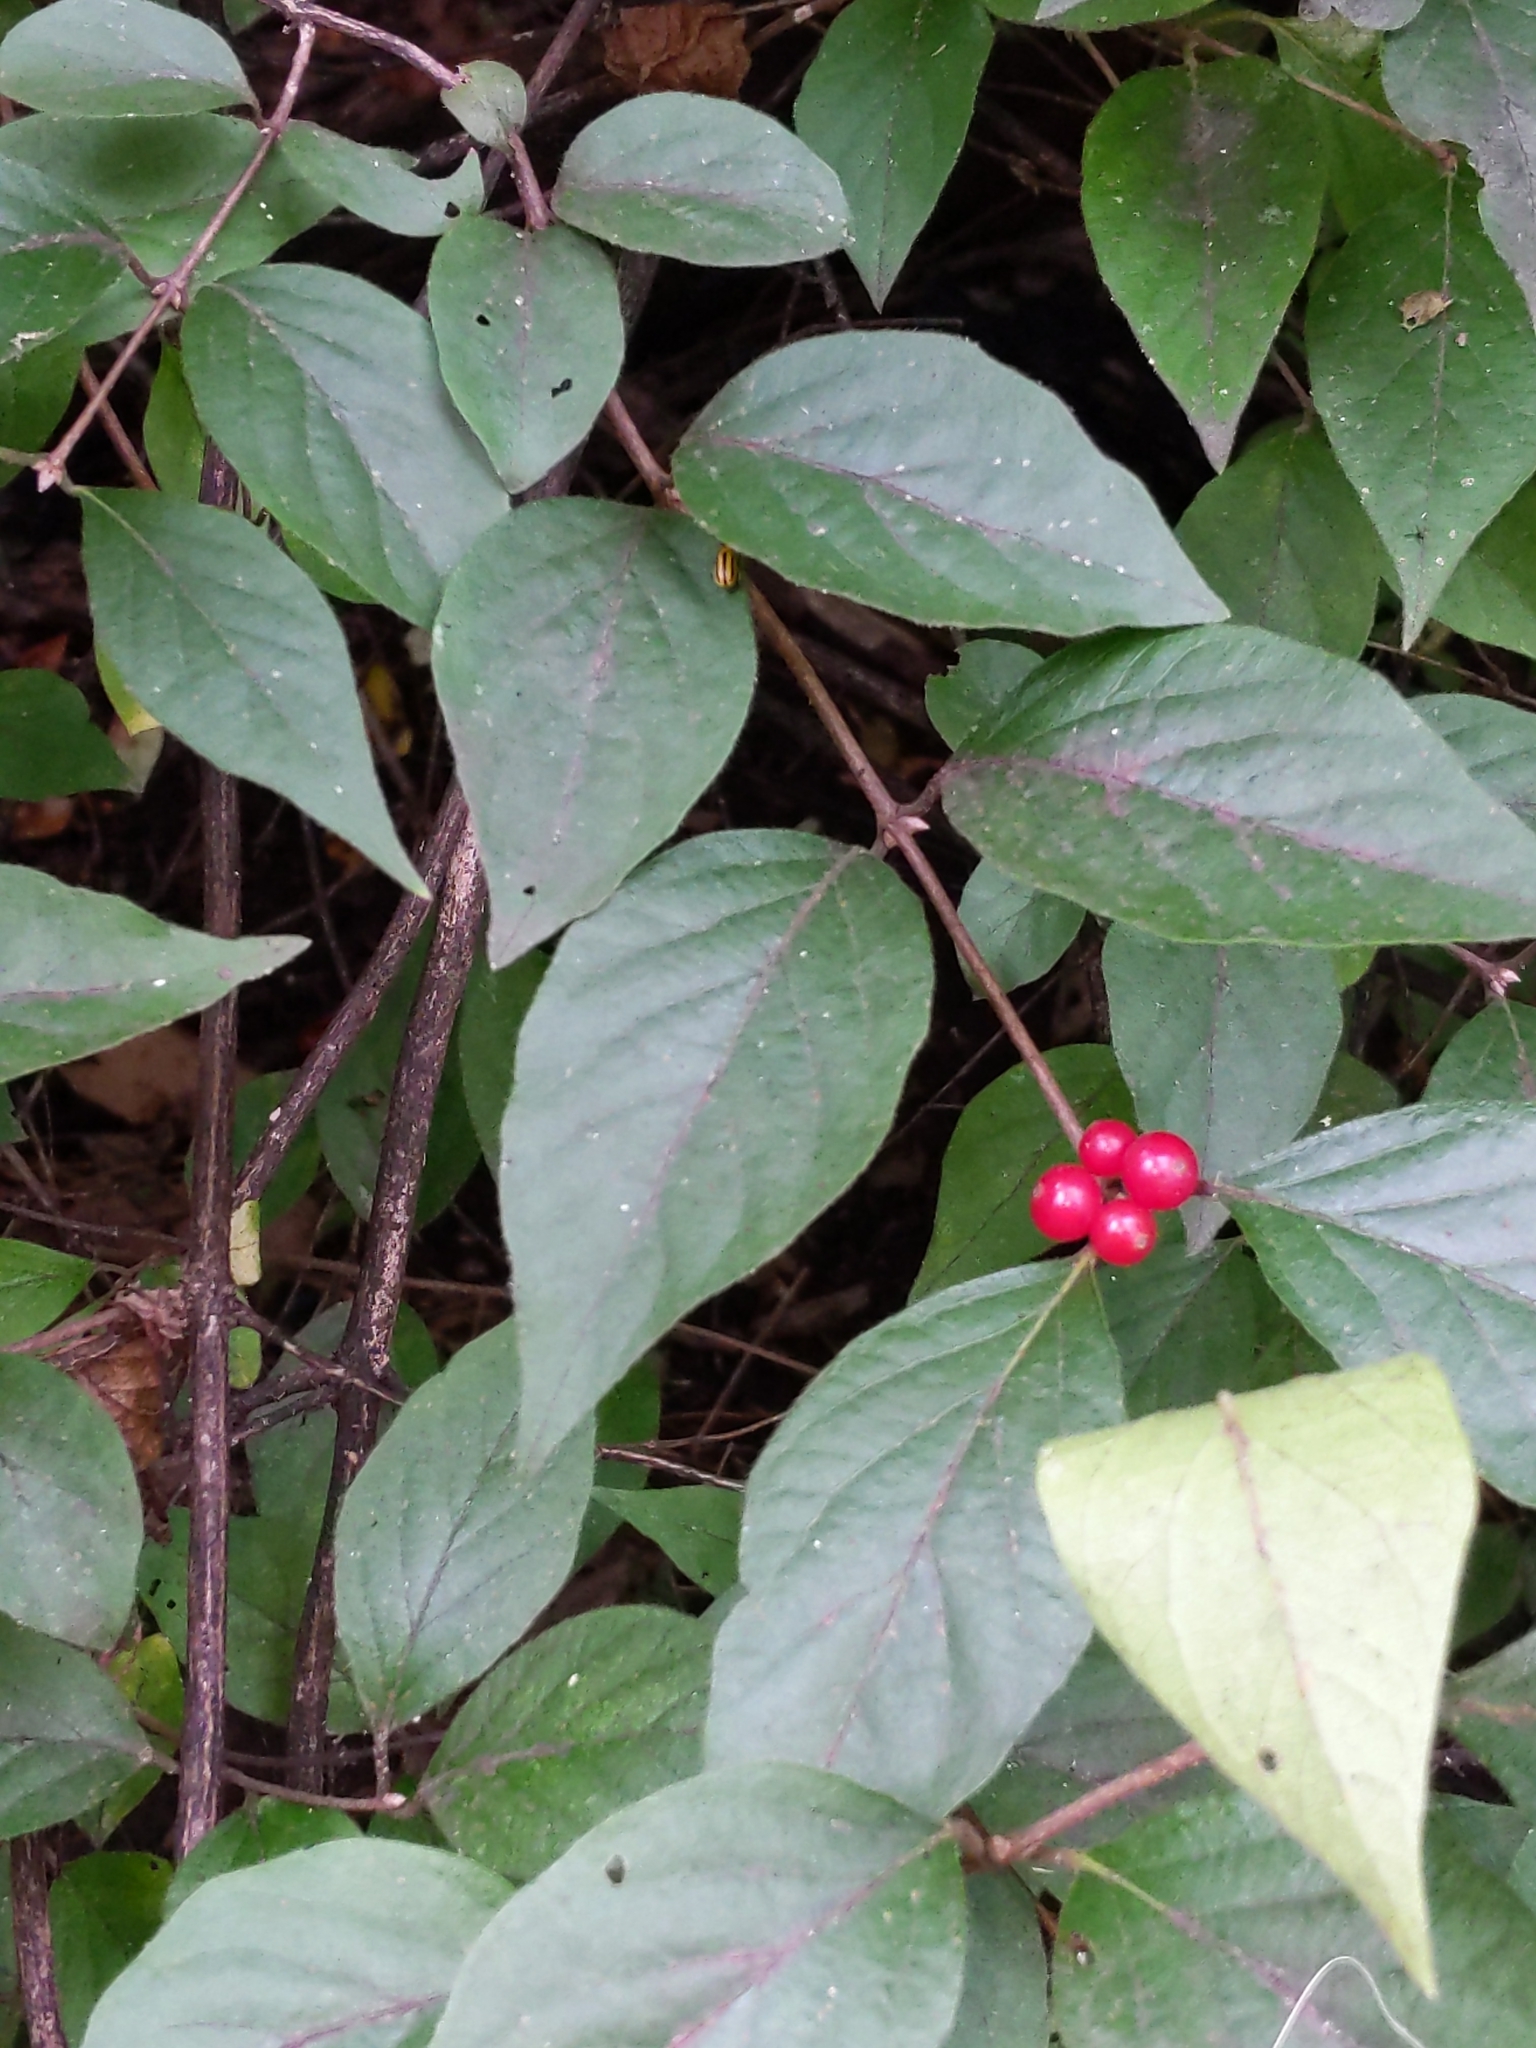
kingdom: Plantae
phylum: Tracheophyta
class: Magnoliopsida
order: Dipsacales
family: Caprifoliaceae
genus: Lonicera
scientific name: Lonicera maackii
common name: Amur honeysuckle
